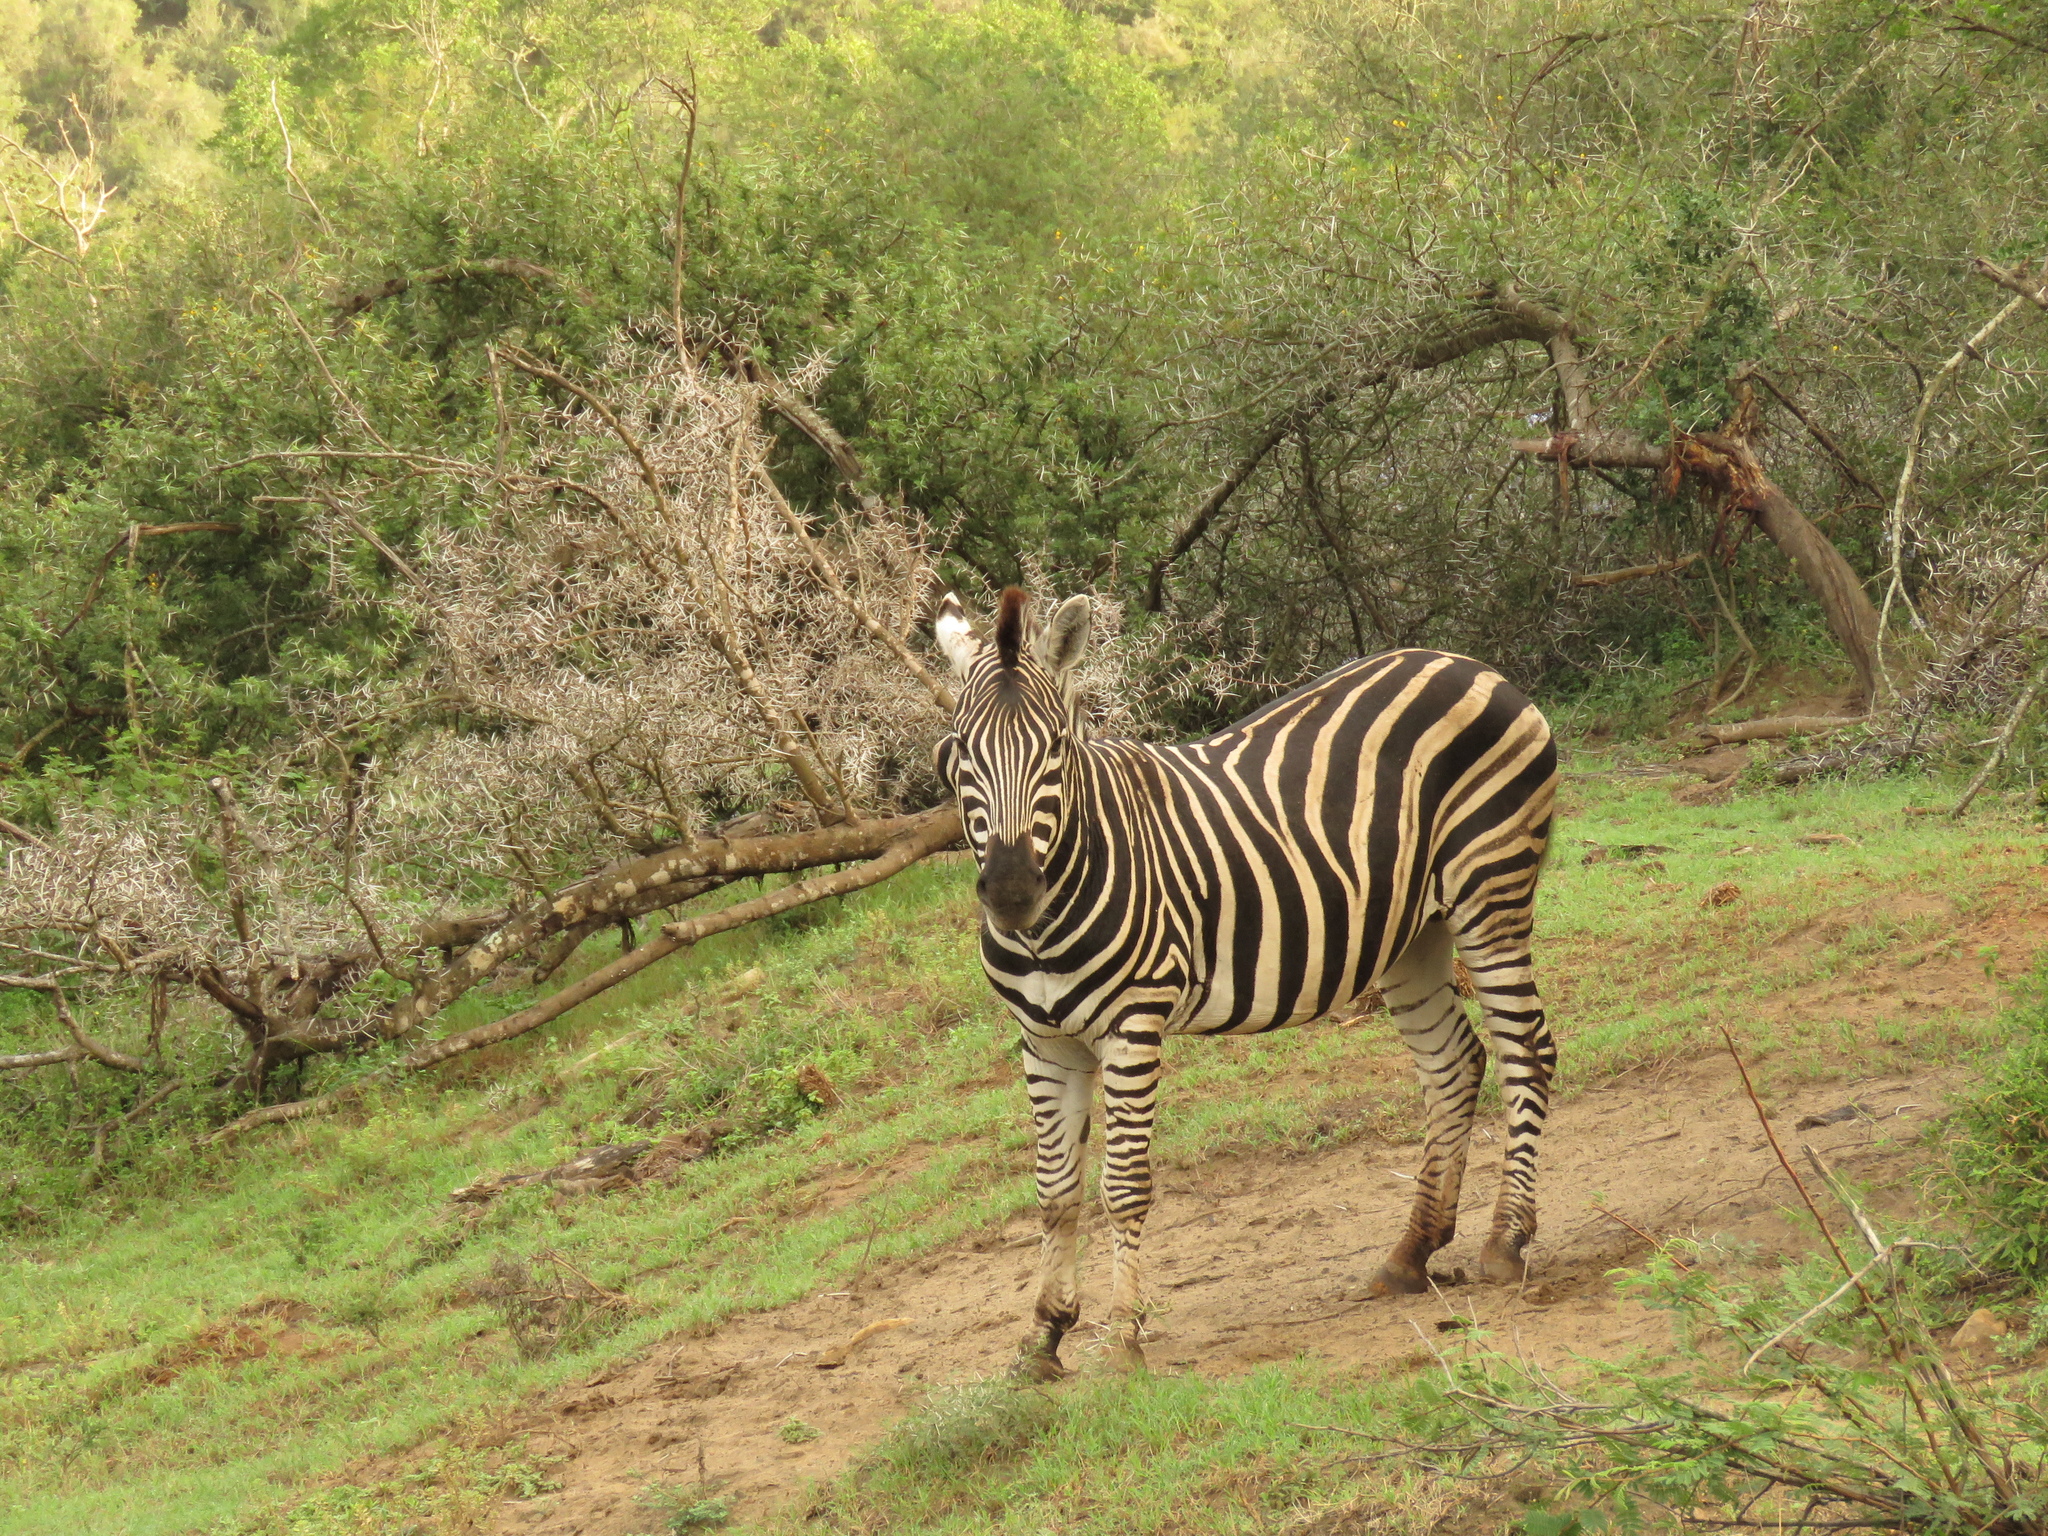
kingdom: Animalia
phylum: Chordata
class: Mammalia
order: Perissodactyla
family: Equidae
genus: Equus
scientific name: Equus quagga
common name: Plains zebra
